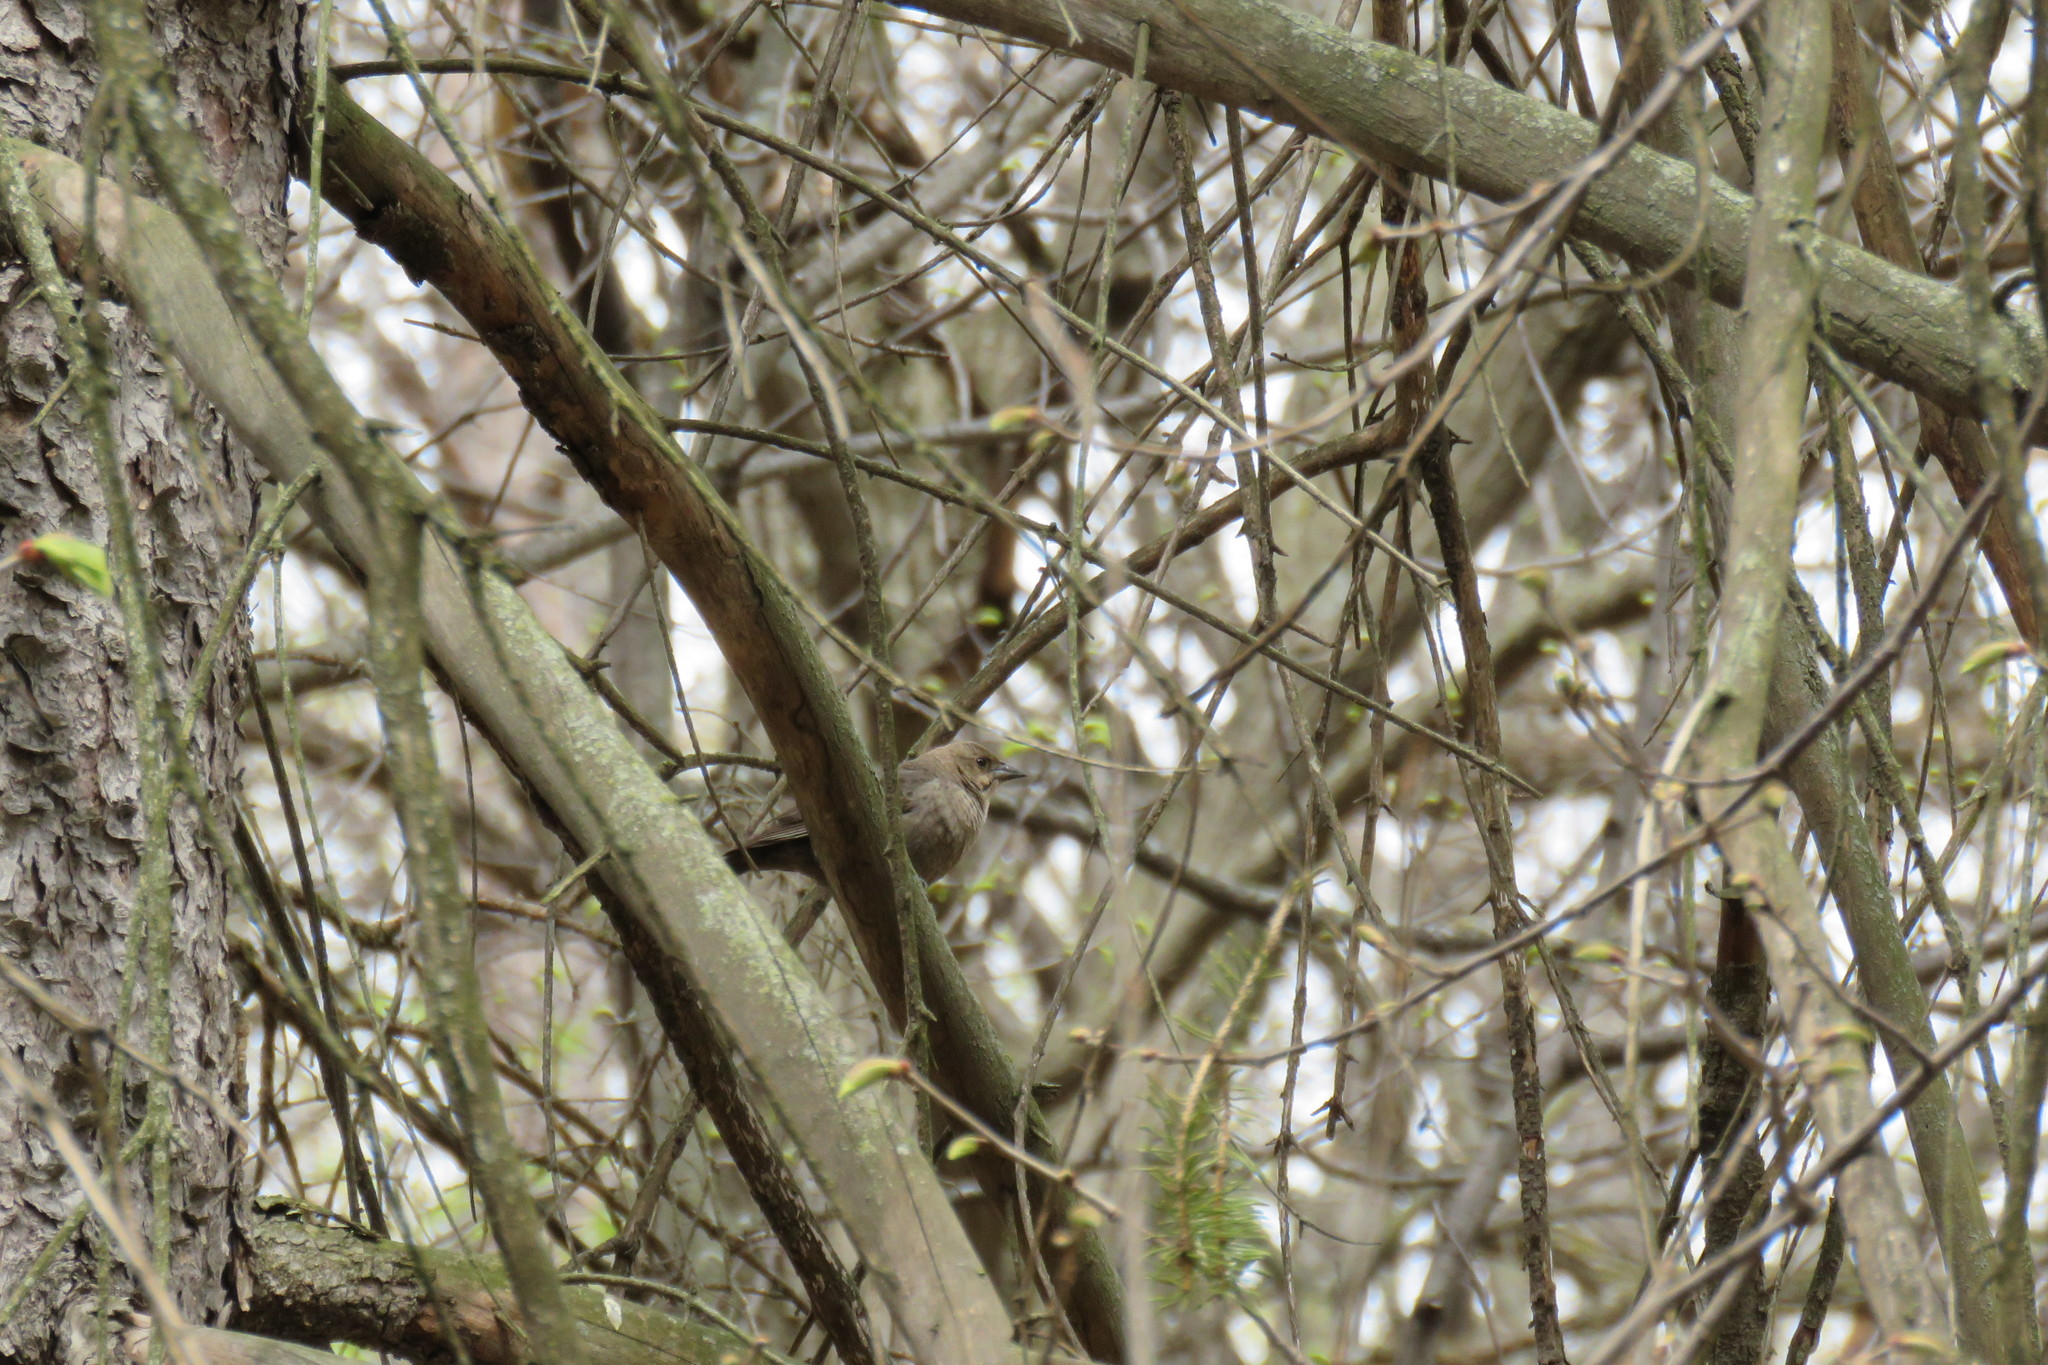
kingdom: Animalia
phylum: Chordata
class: Aves
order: Passeriformes
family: Icteridae
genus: Molothrus
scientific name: Molothrus ater
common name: Brown-headed cowbird
